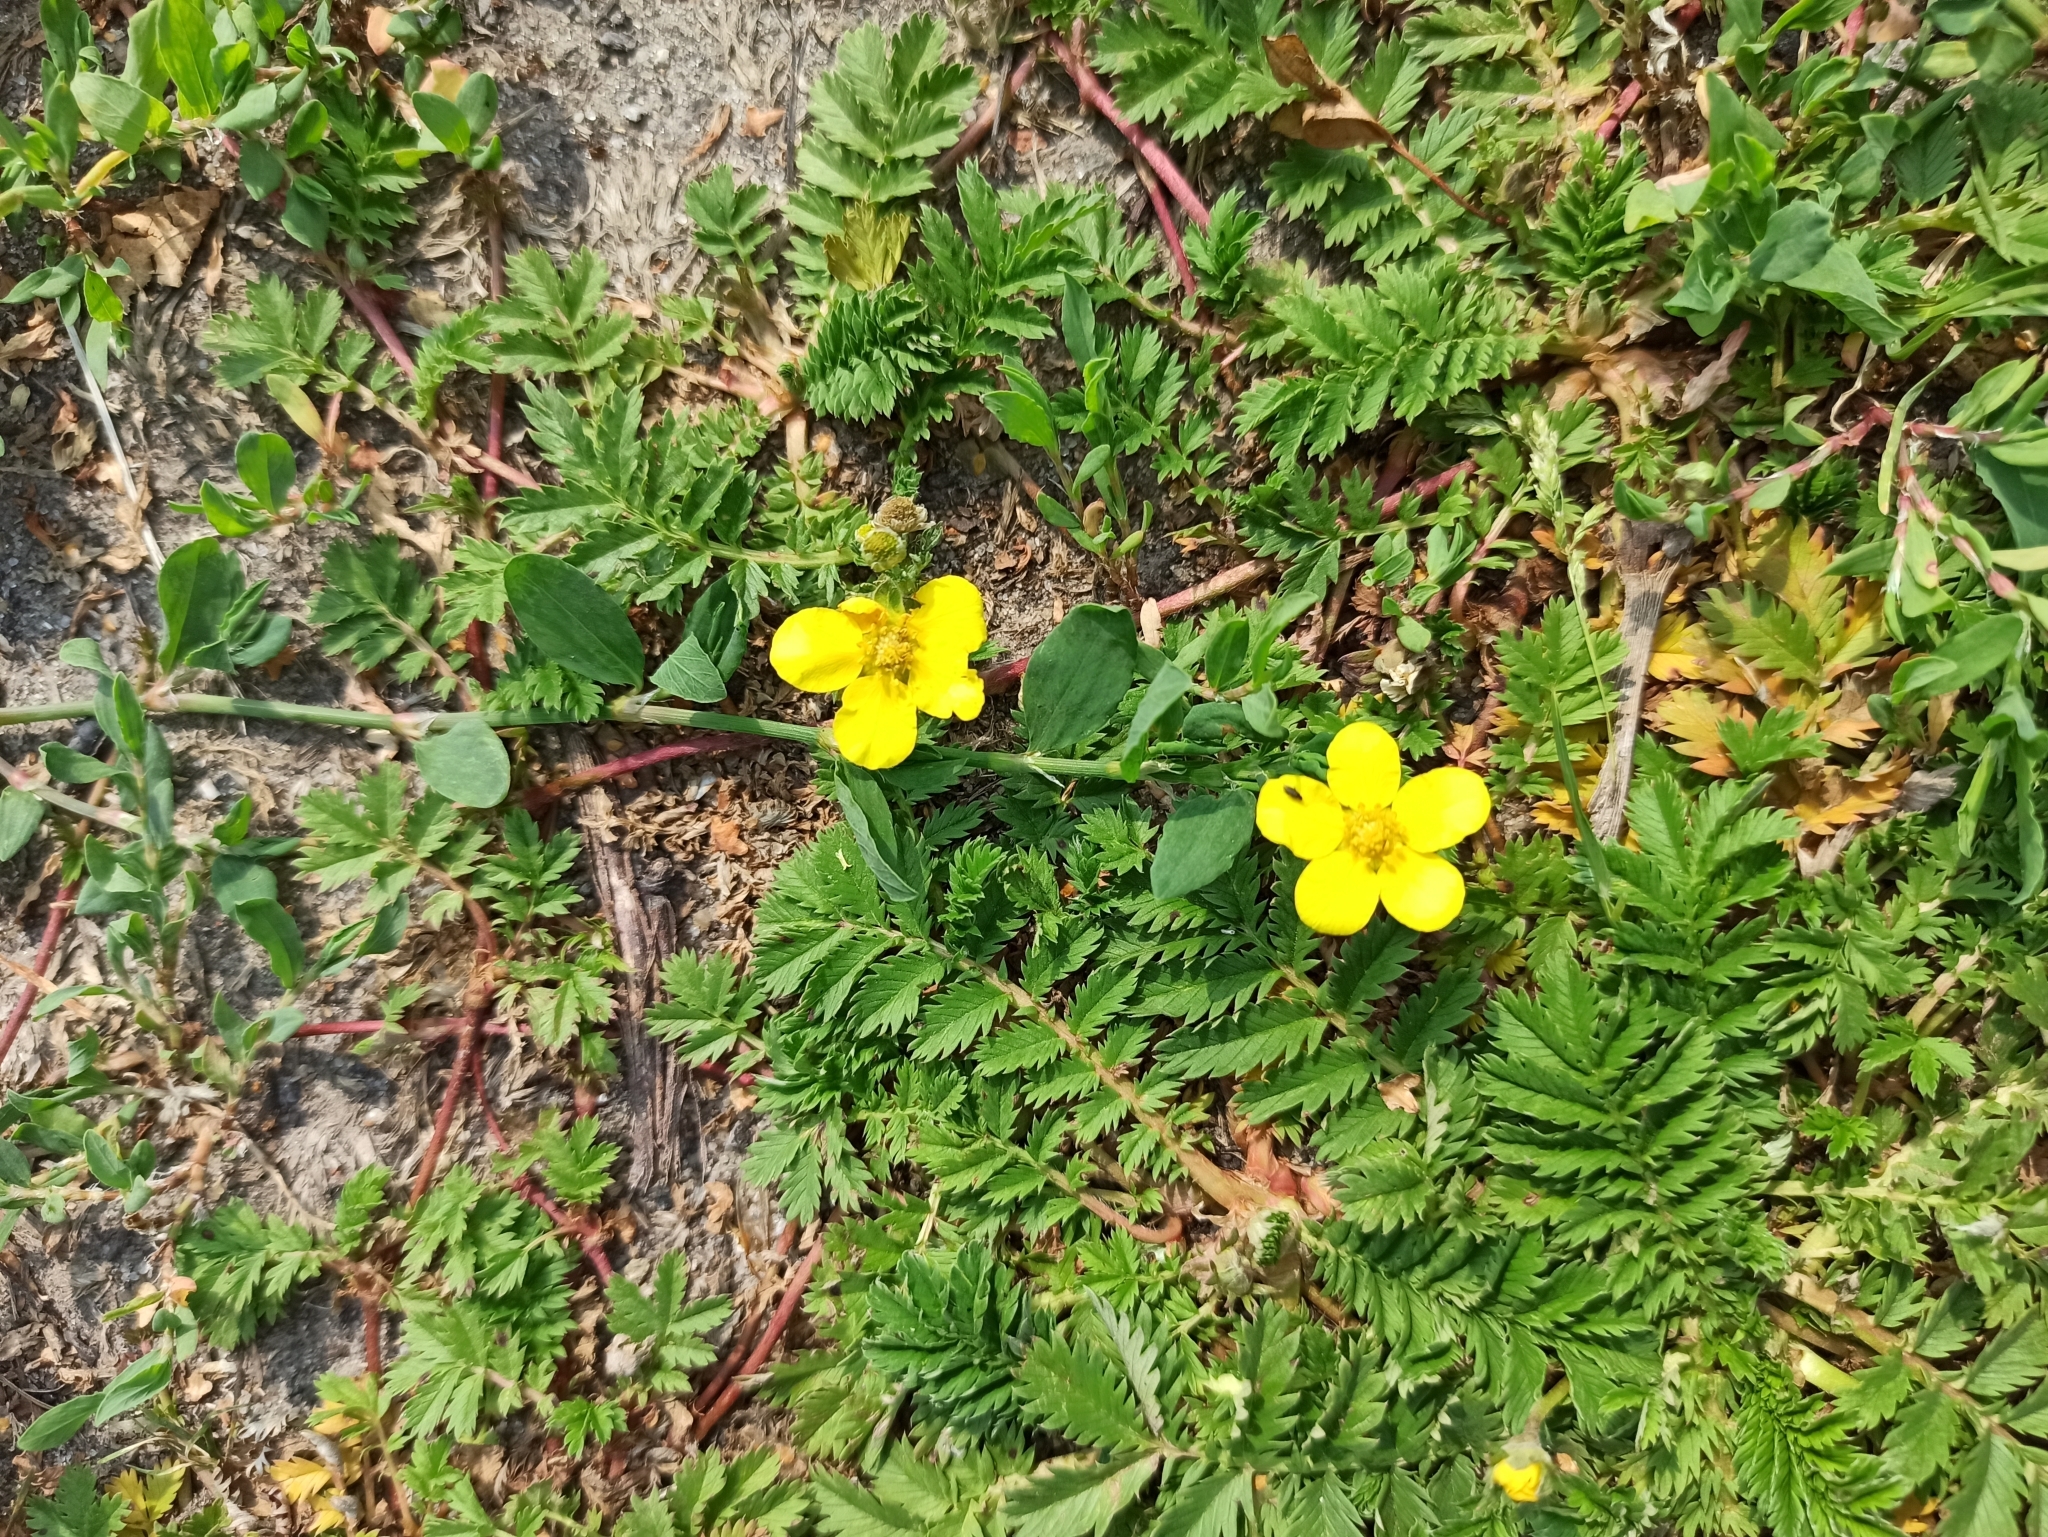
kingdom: Plantae
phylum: Tracheophyta
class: Magnoliopsida
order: Rosales
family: Rosaceae
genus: Argentina
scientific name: Argentina anserina
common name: Common silverweed
